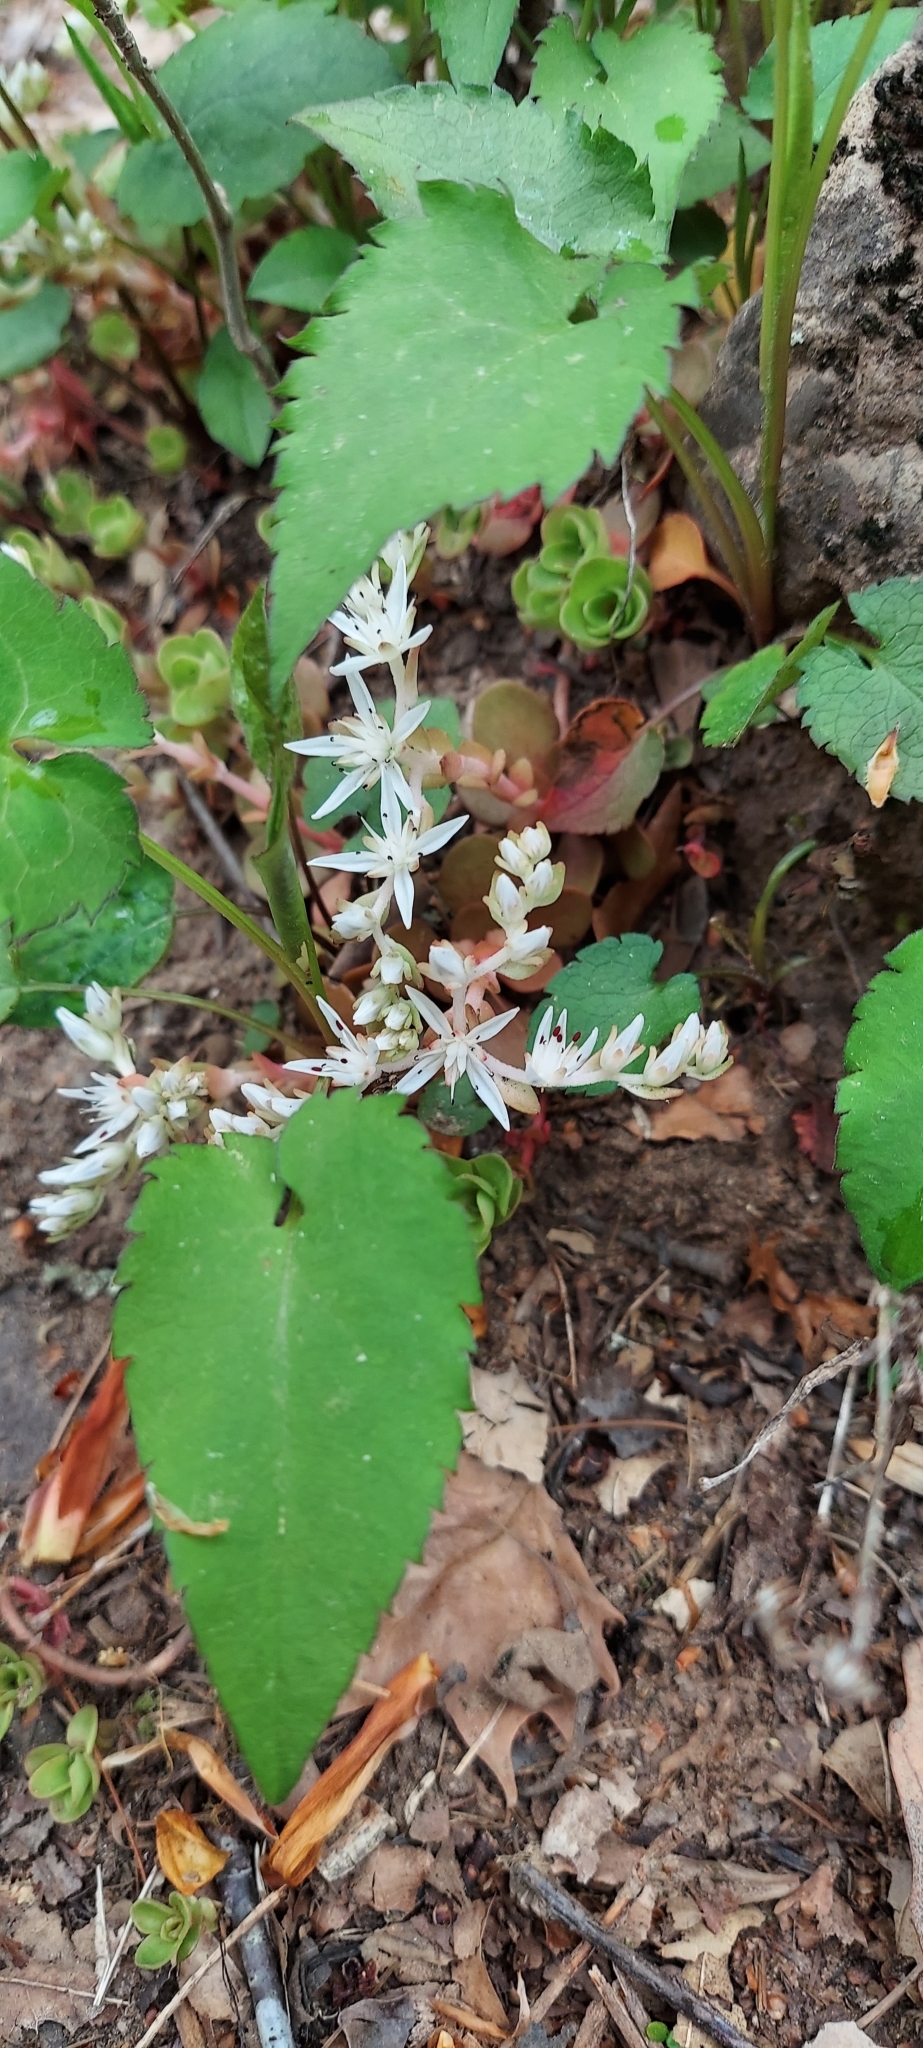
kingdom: Plantae
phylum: Tracheophyta
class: Magnoliopsida
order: Saxifragales
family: Crassulaceae
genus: Sedum
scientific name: Sedum ternatum
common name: Wild stonecrop
